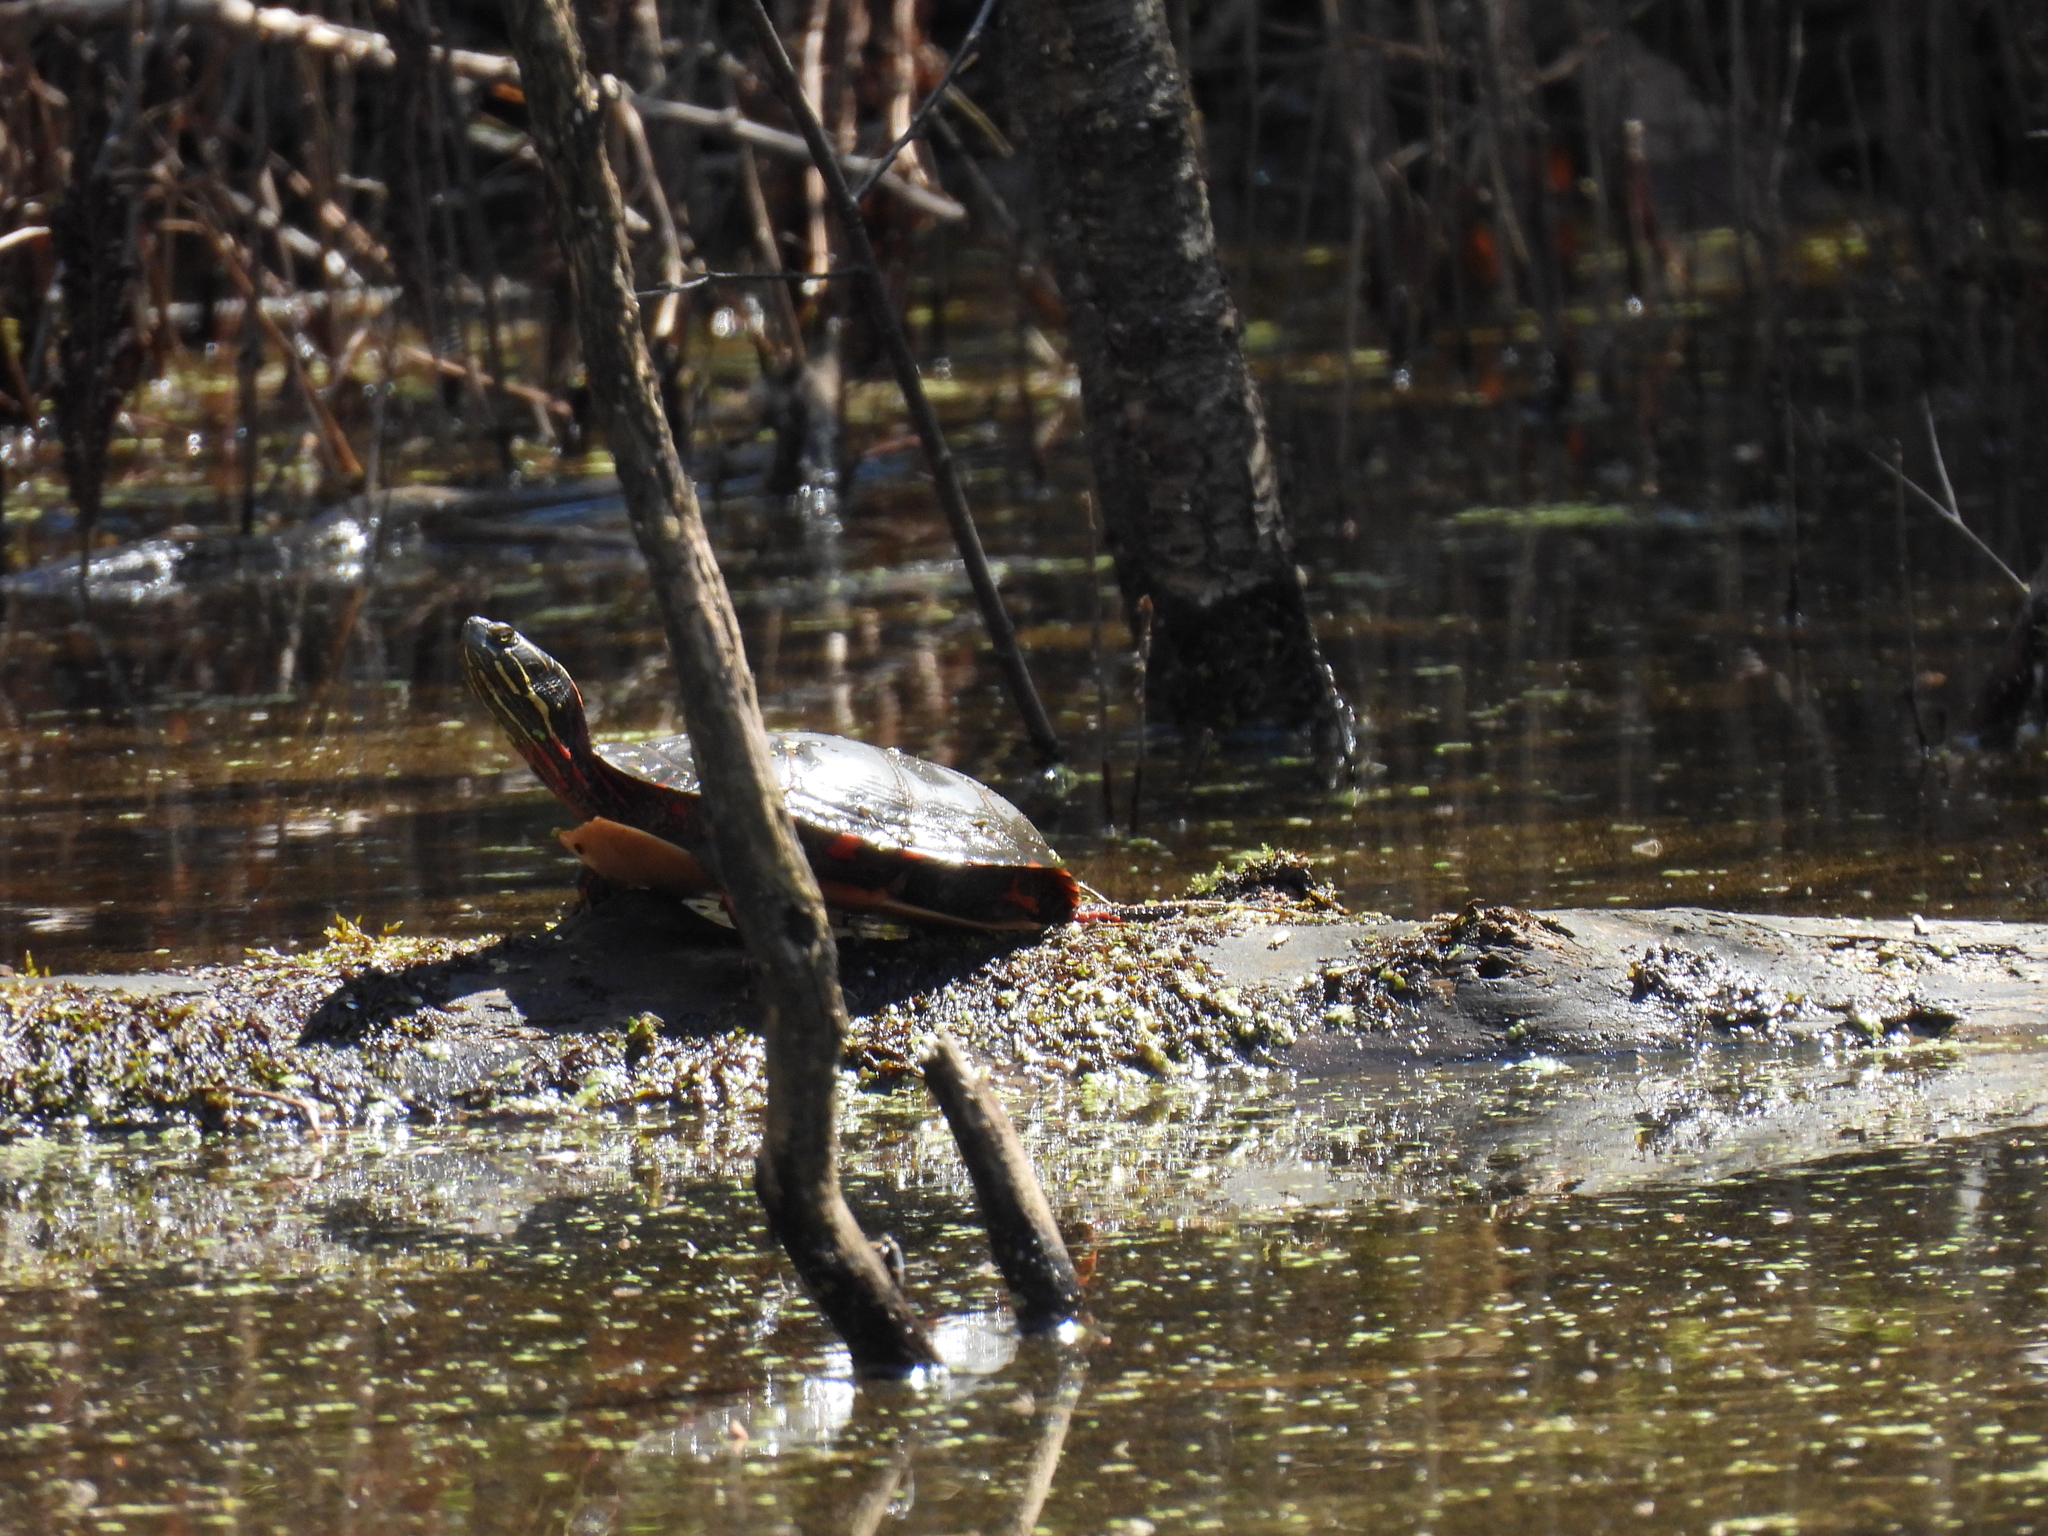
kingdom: Animalia
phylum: Chordata
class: Testudines
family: Emydidae
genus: Chrysemys
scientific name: Chrysemys picta
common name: Painted turtle
